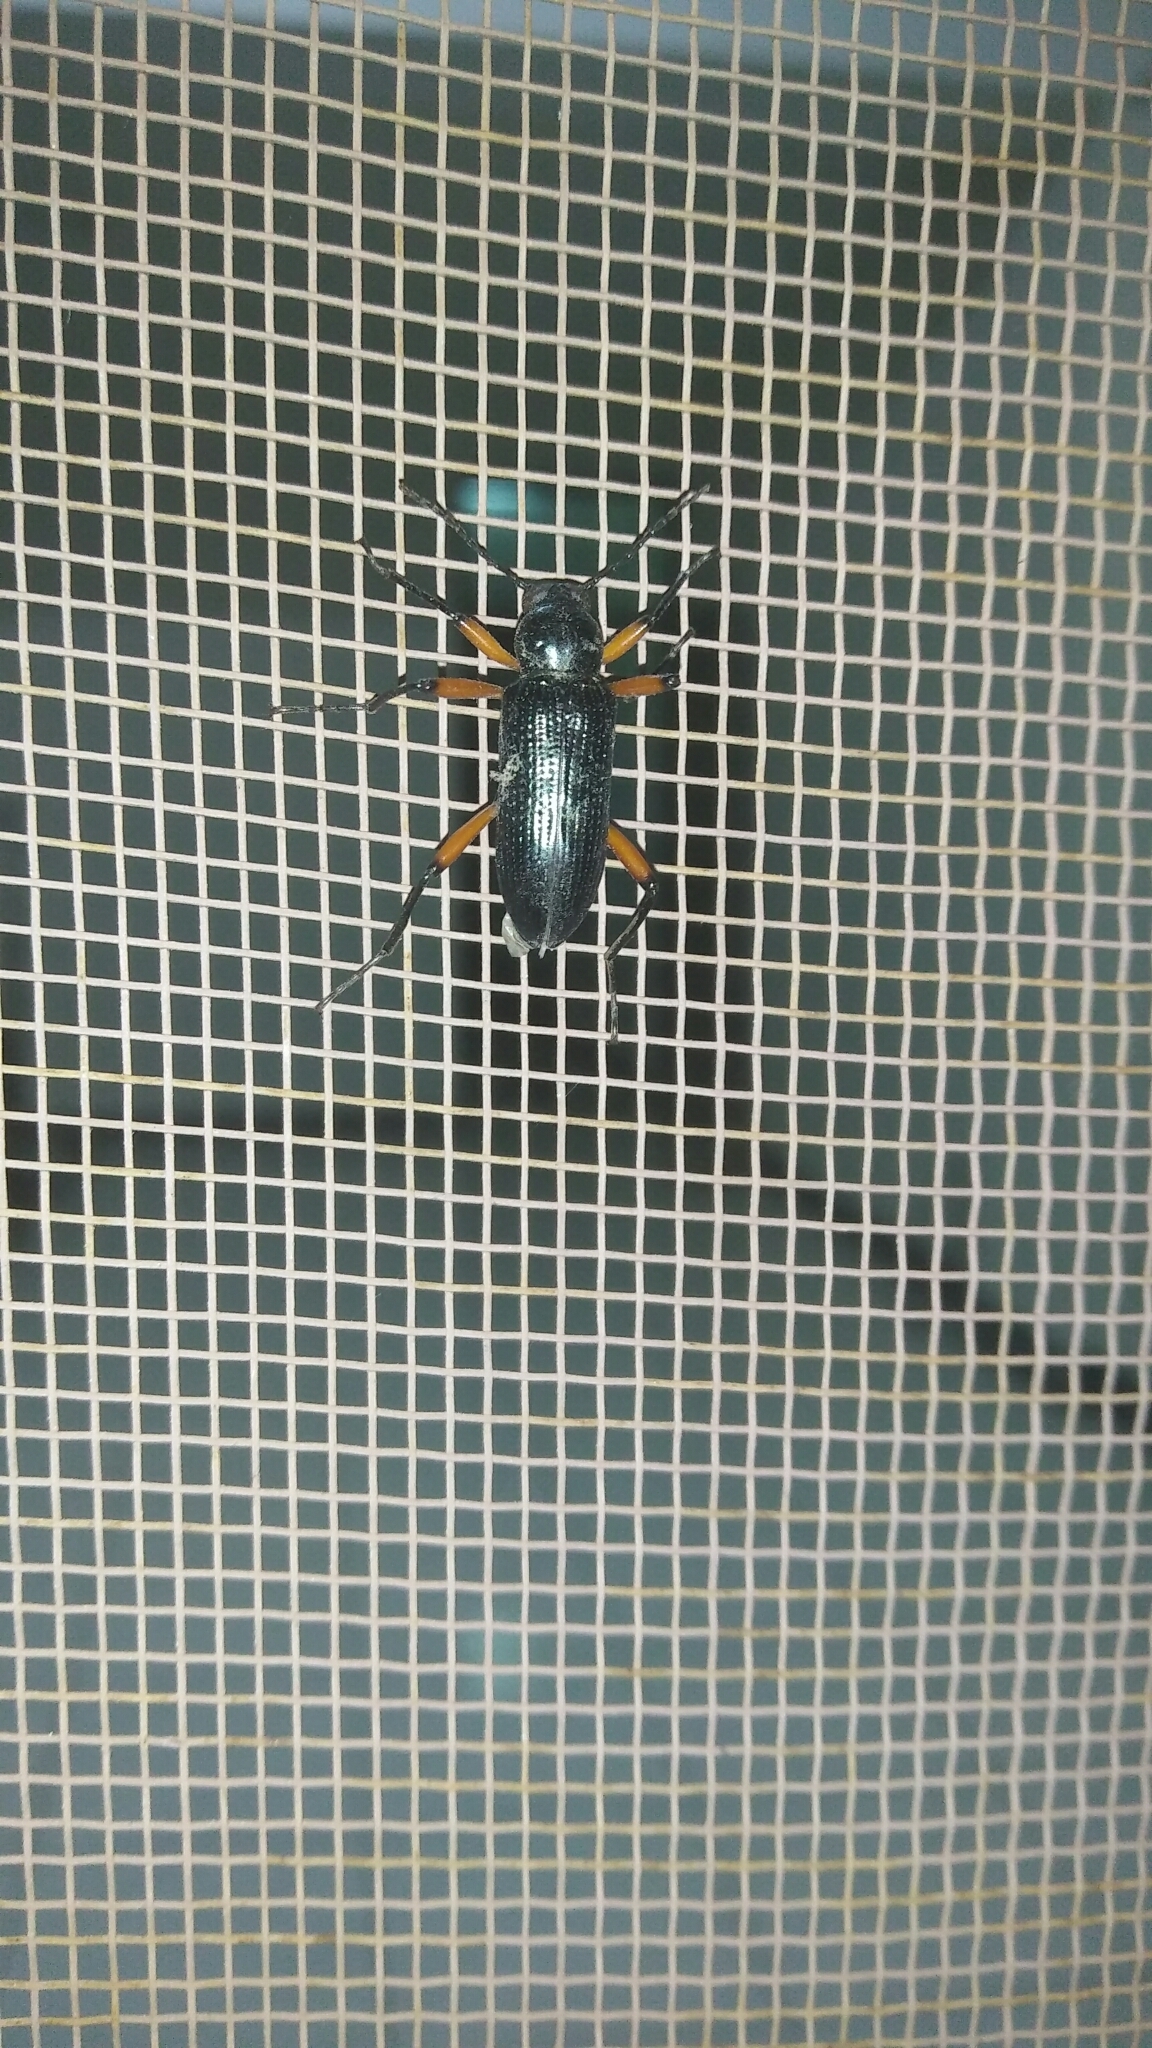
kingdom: Animalia
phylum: Arthropoda
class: Insecta
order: Coleoptera
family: Tenebrionidae
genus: Strongylium
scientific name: Strongylium erythrocephalum
